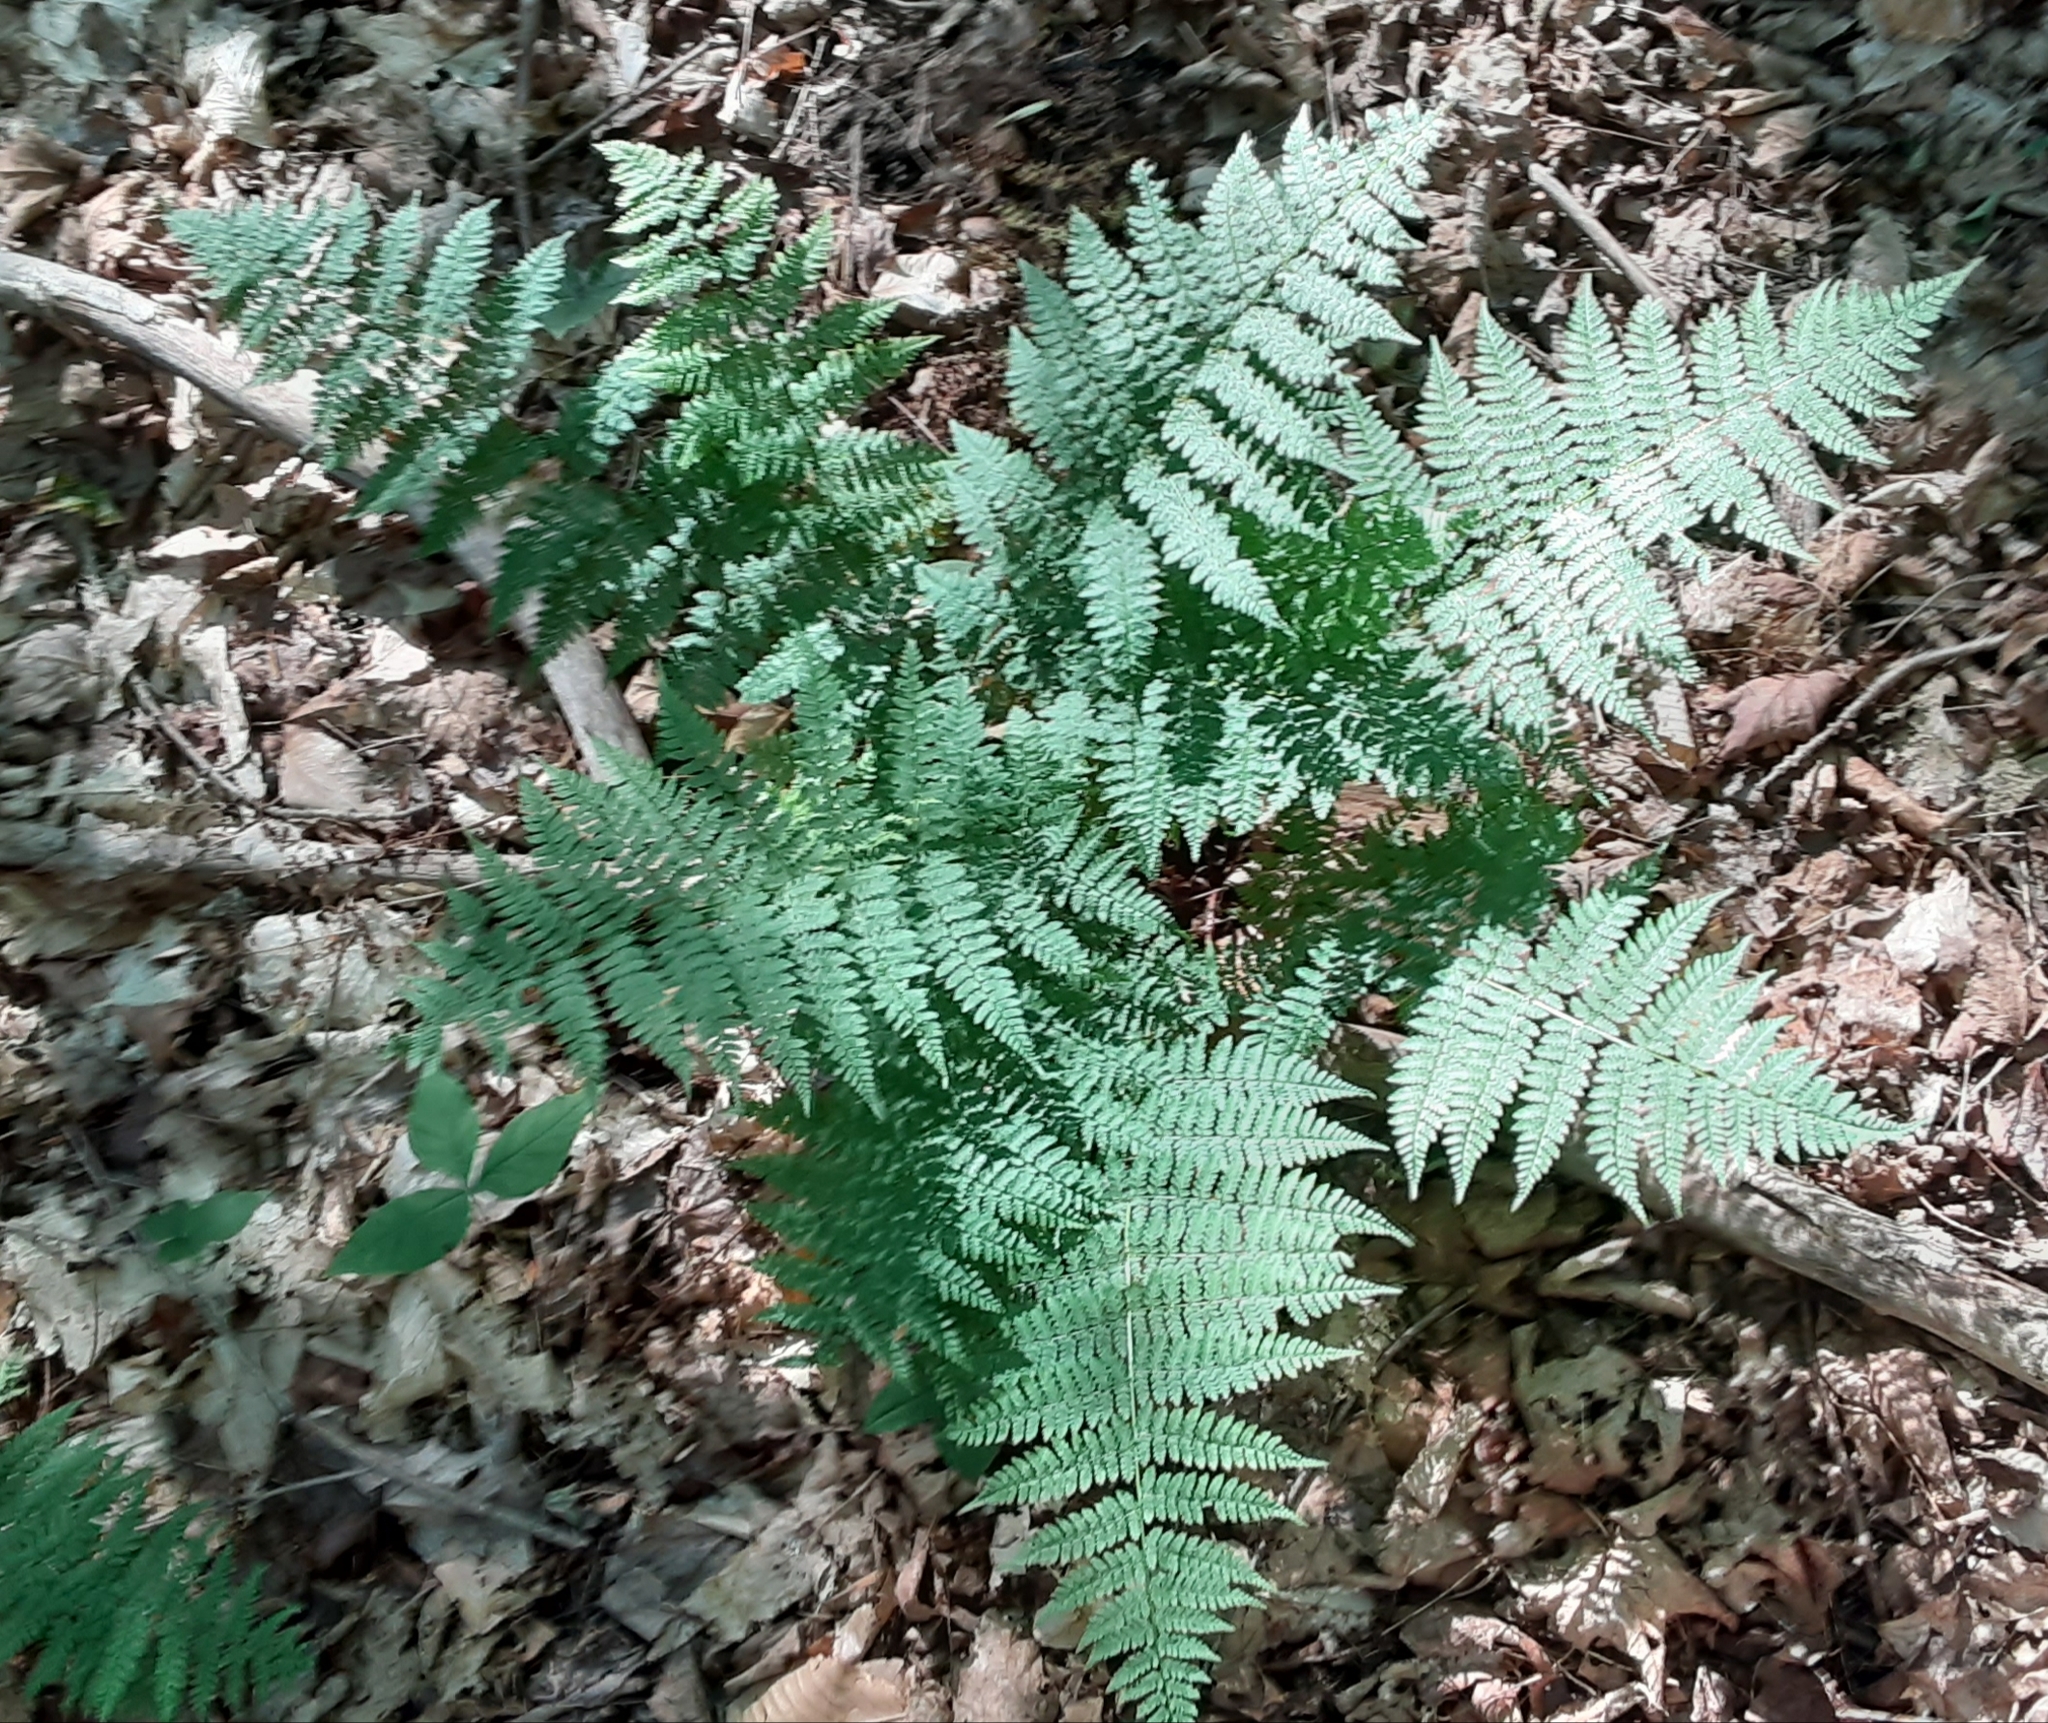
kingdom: Plantae
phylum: Tracheophyta
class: Polypodiopsida
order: Polypodiales
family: Dryopteridaceae
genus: Dryopteris
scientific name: Dryopteris intermedia
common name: Evergreen wood fern
